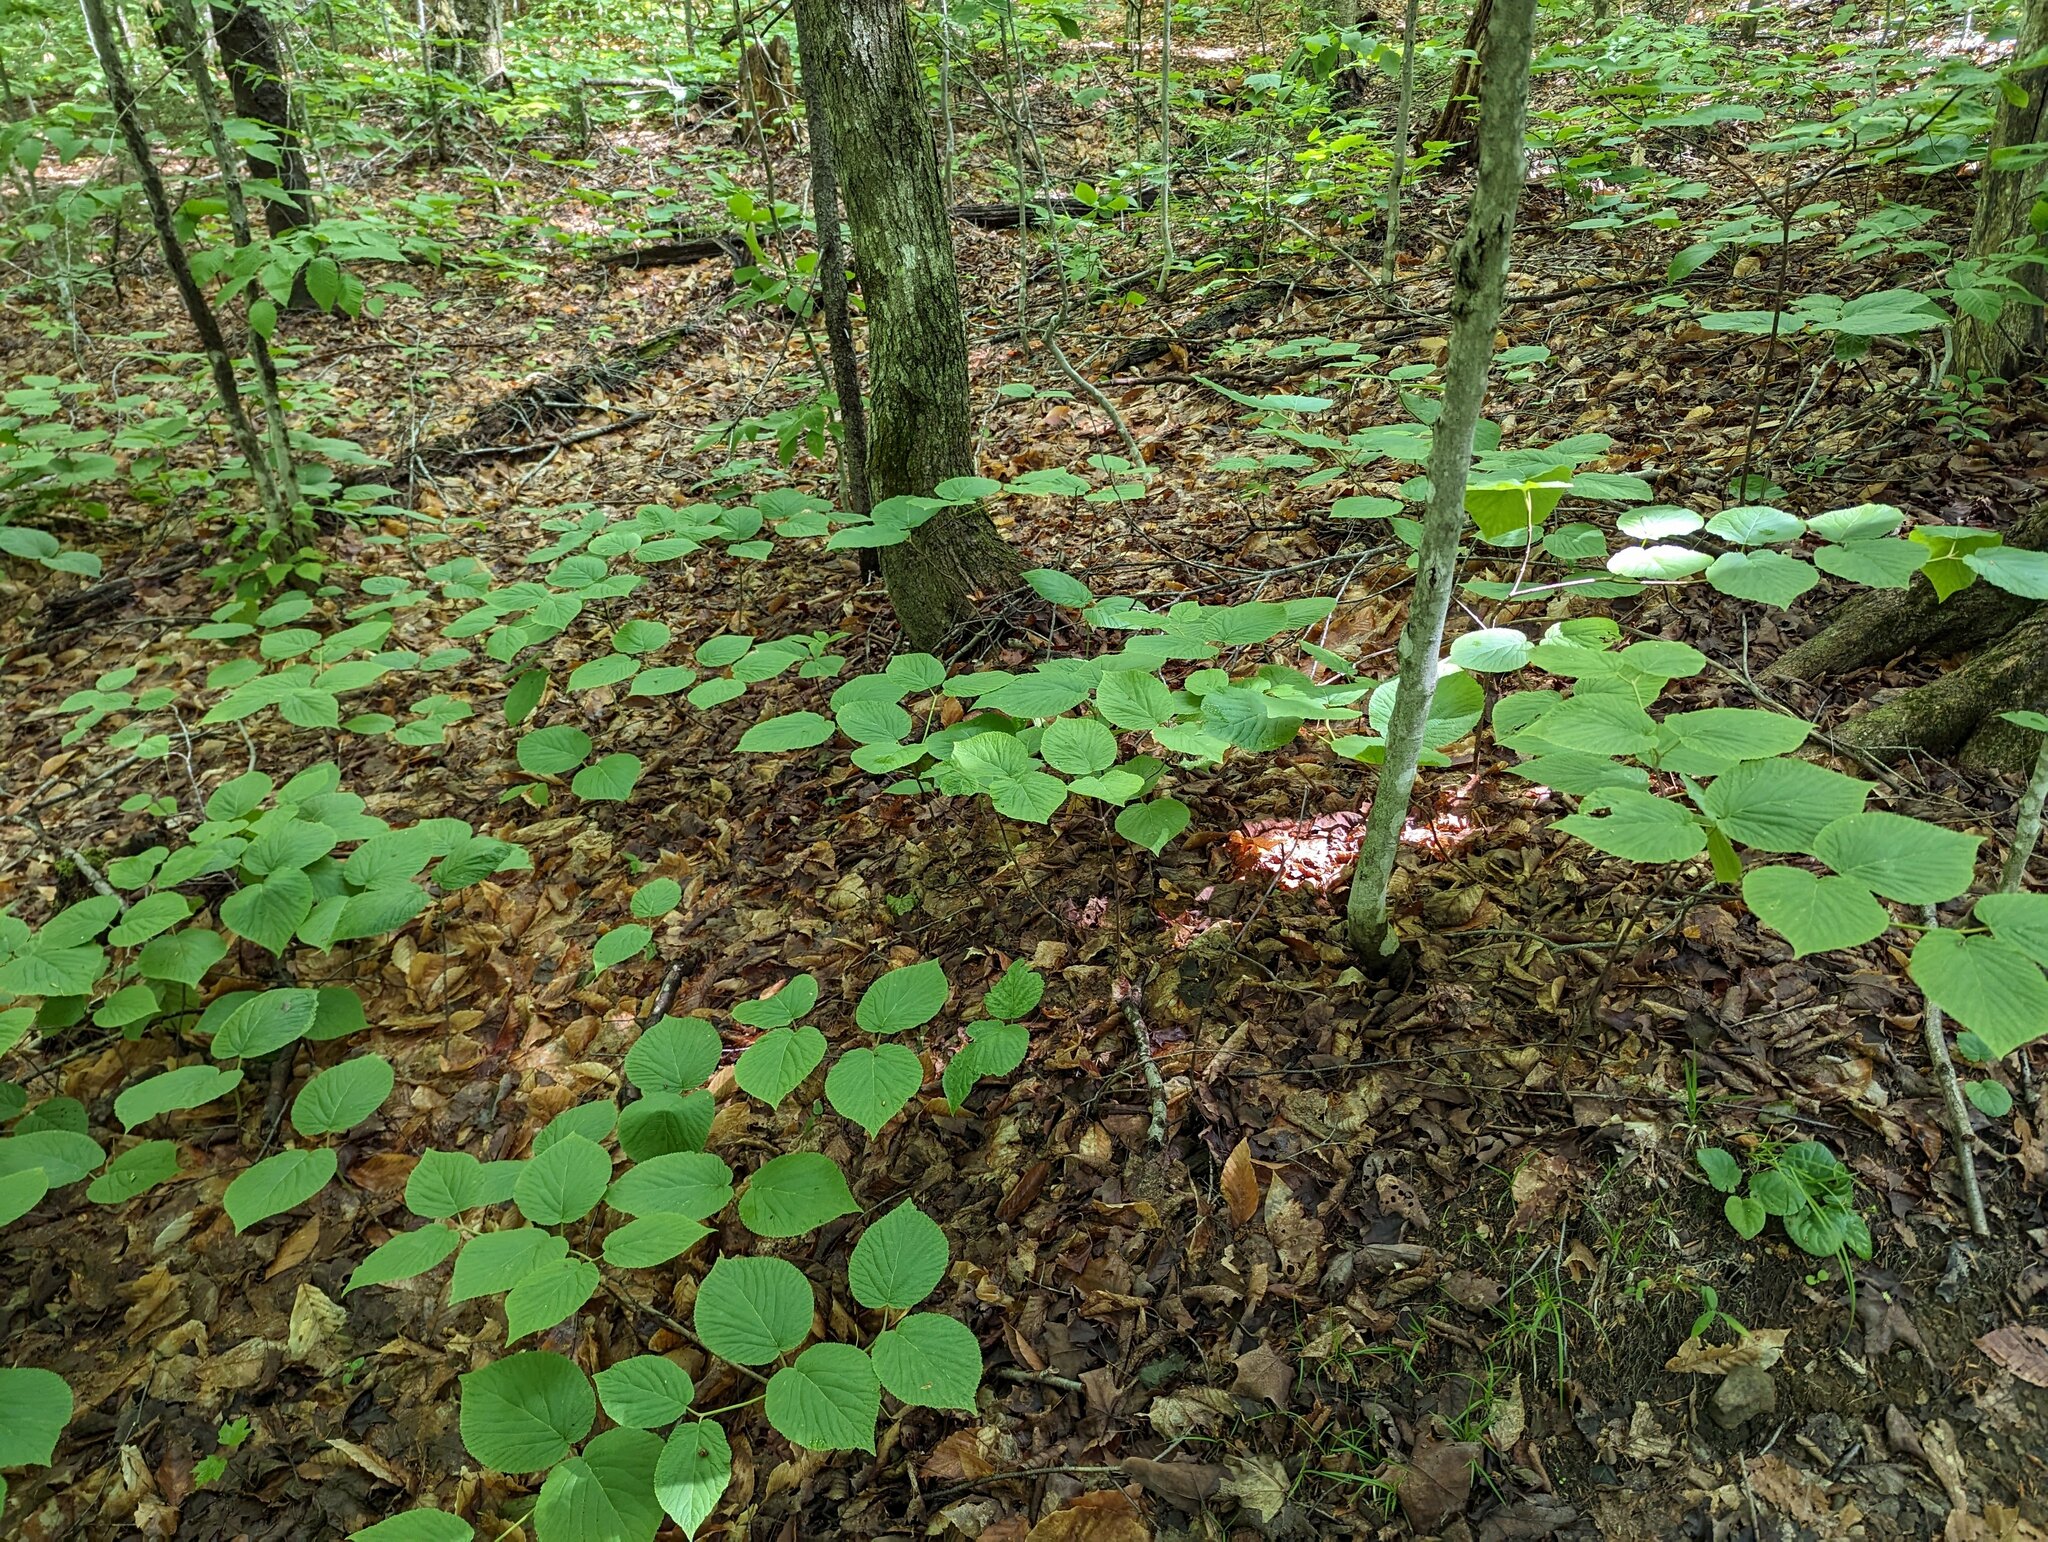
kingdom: Plantae
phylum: Tracheophyta
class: Magnoliopsida
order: Dipsacales
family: Viburnaceae
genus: Viburnum
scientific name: Viburnum lantanoides
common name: Hobblebush
